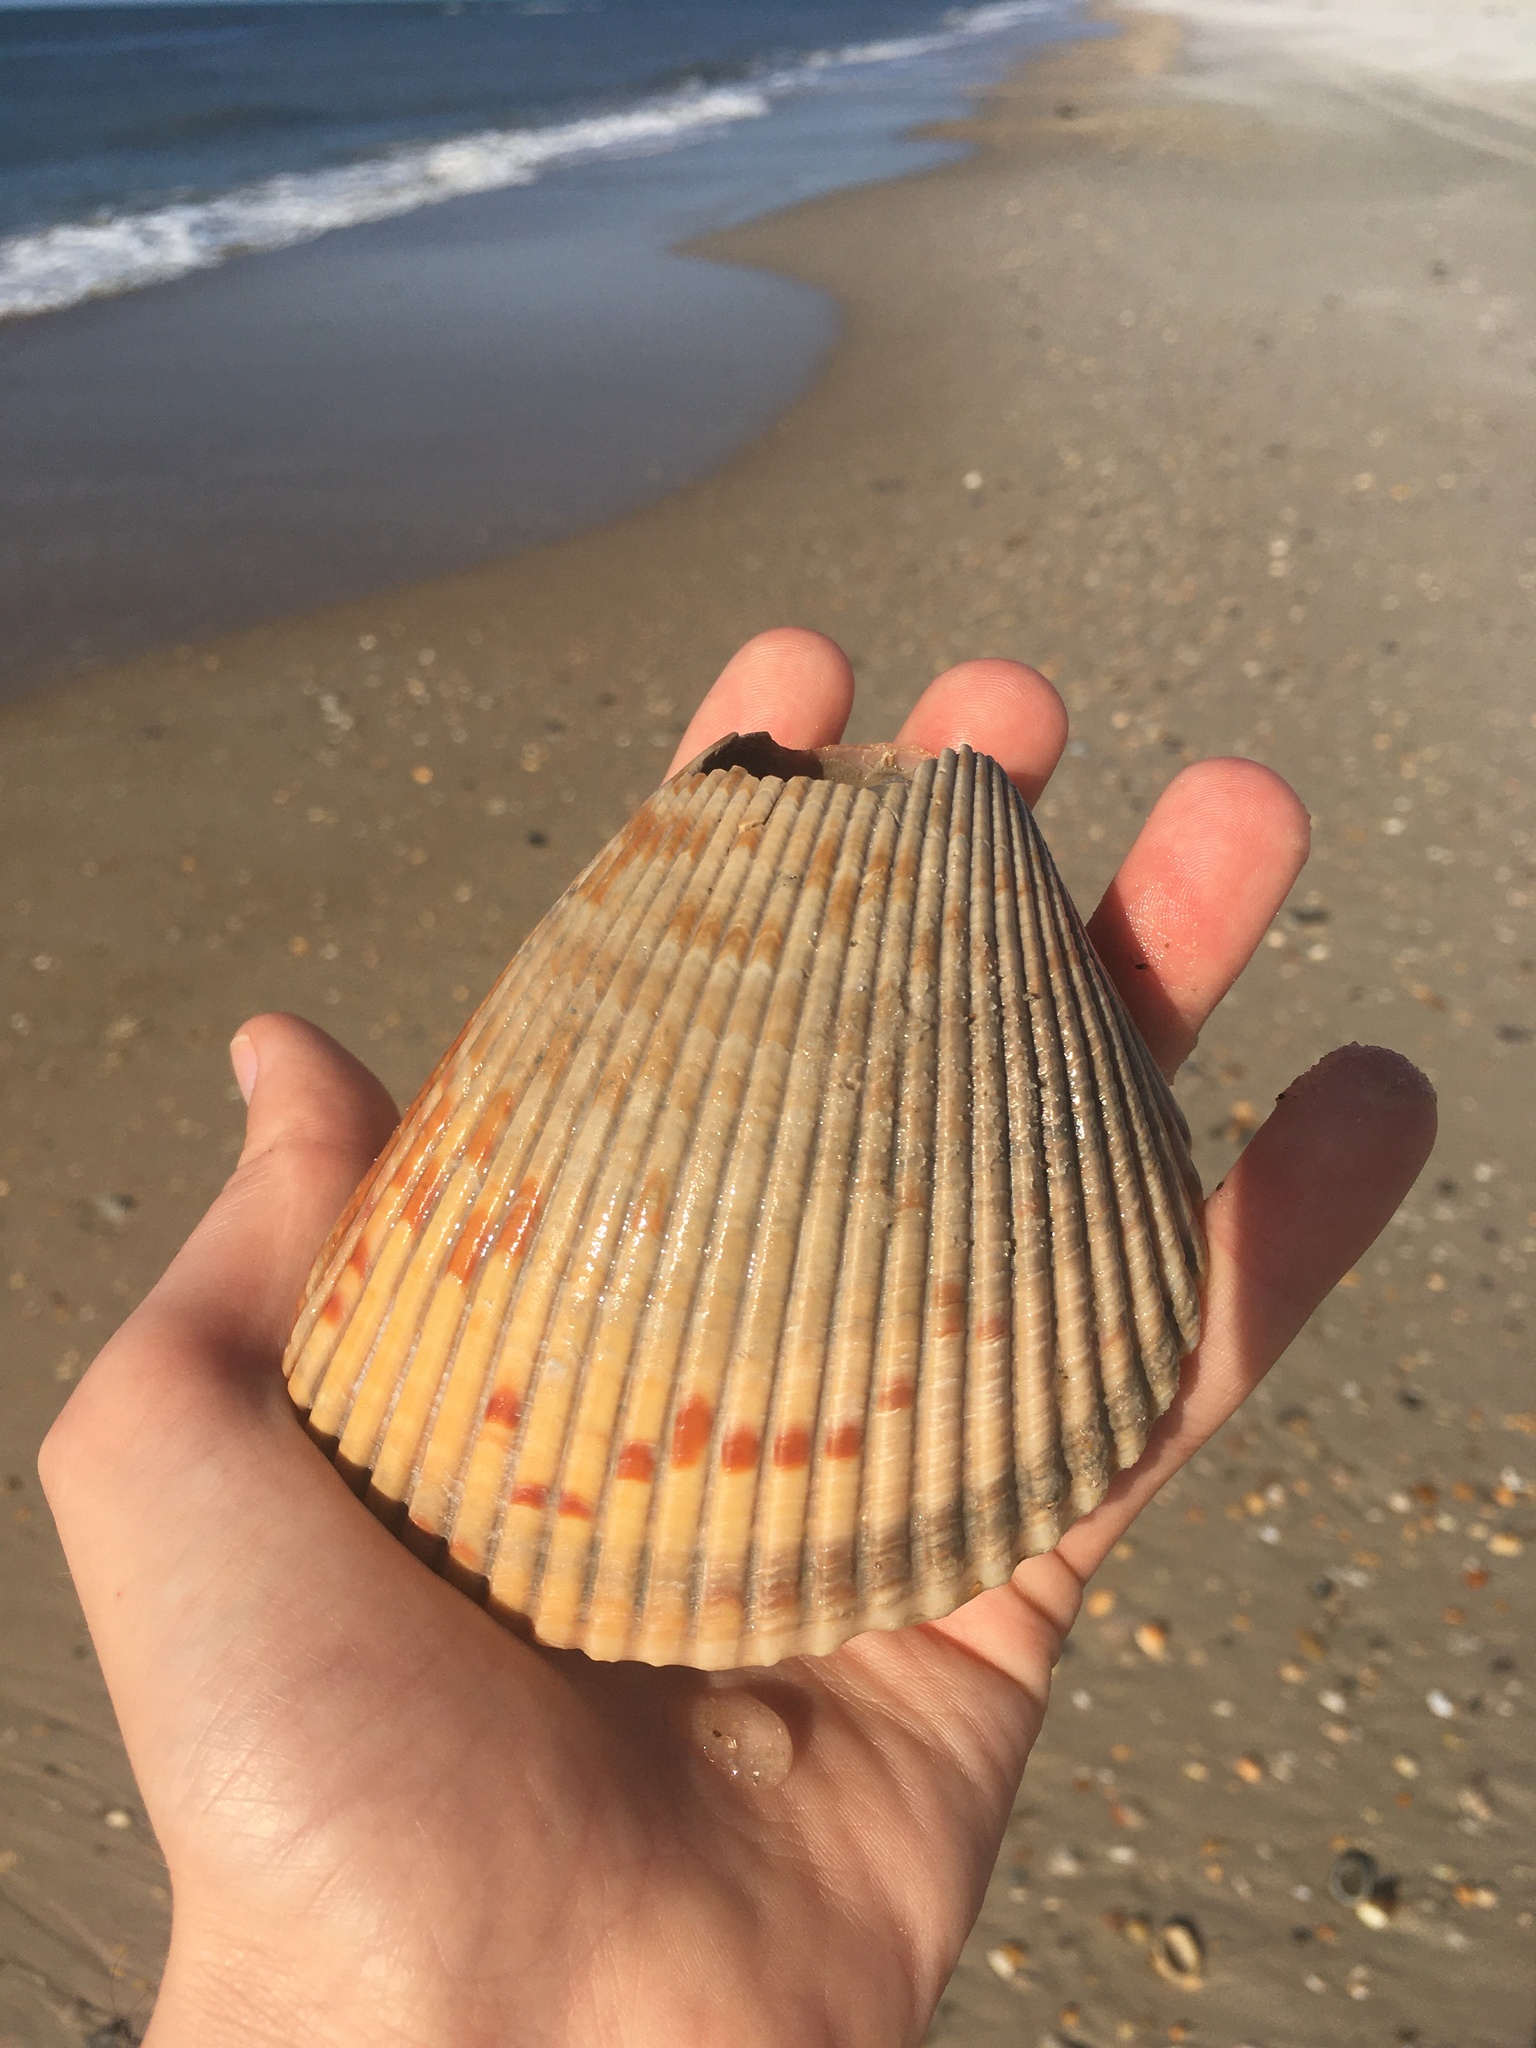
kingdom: Animalia
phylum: Mollusca
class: Bivalvia
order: Cardiida
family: Cardiidae
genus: Dinocardium
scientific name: Dinocardium robustum
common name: Atlantic giant cockle
